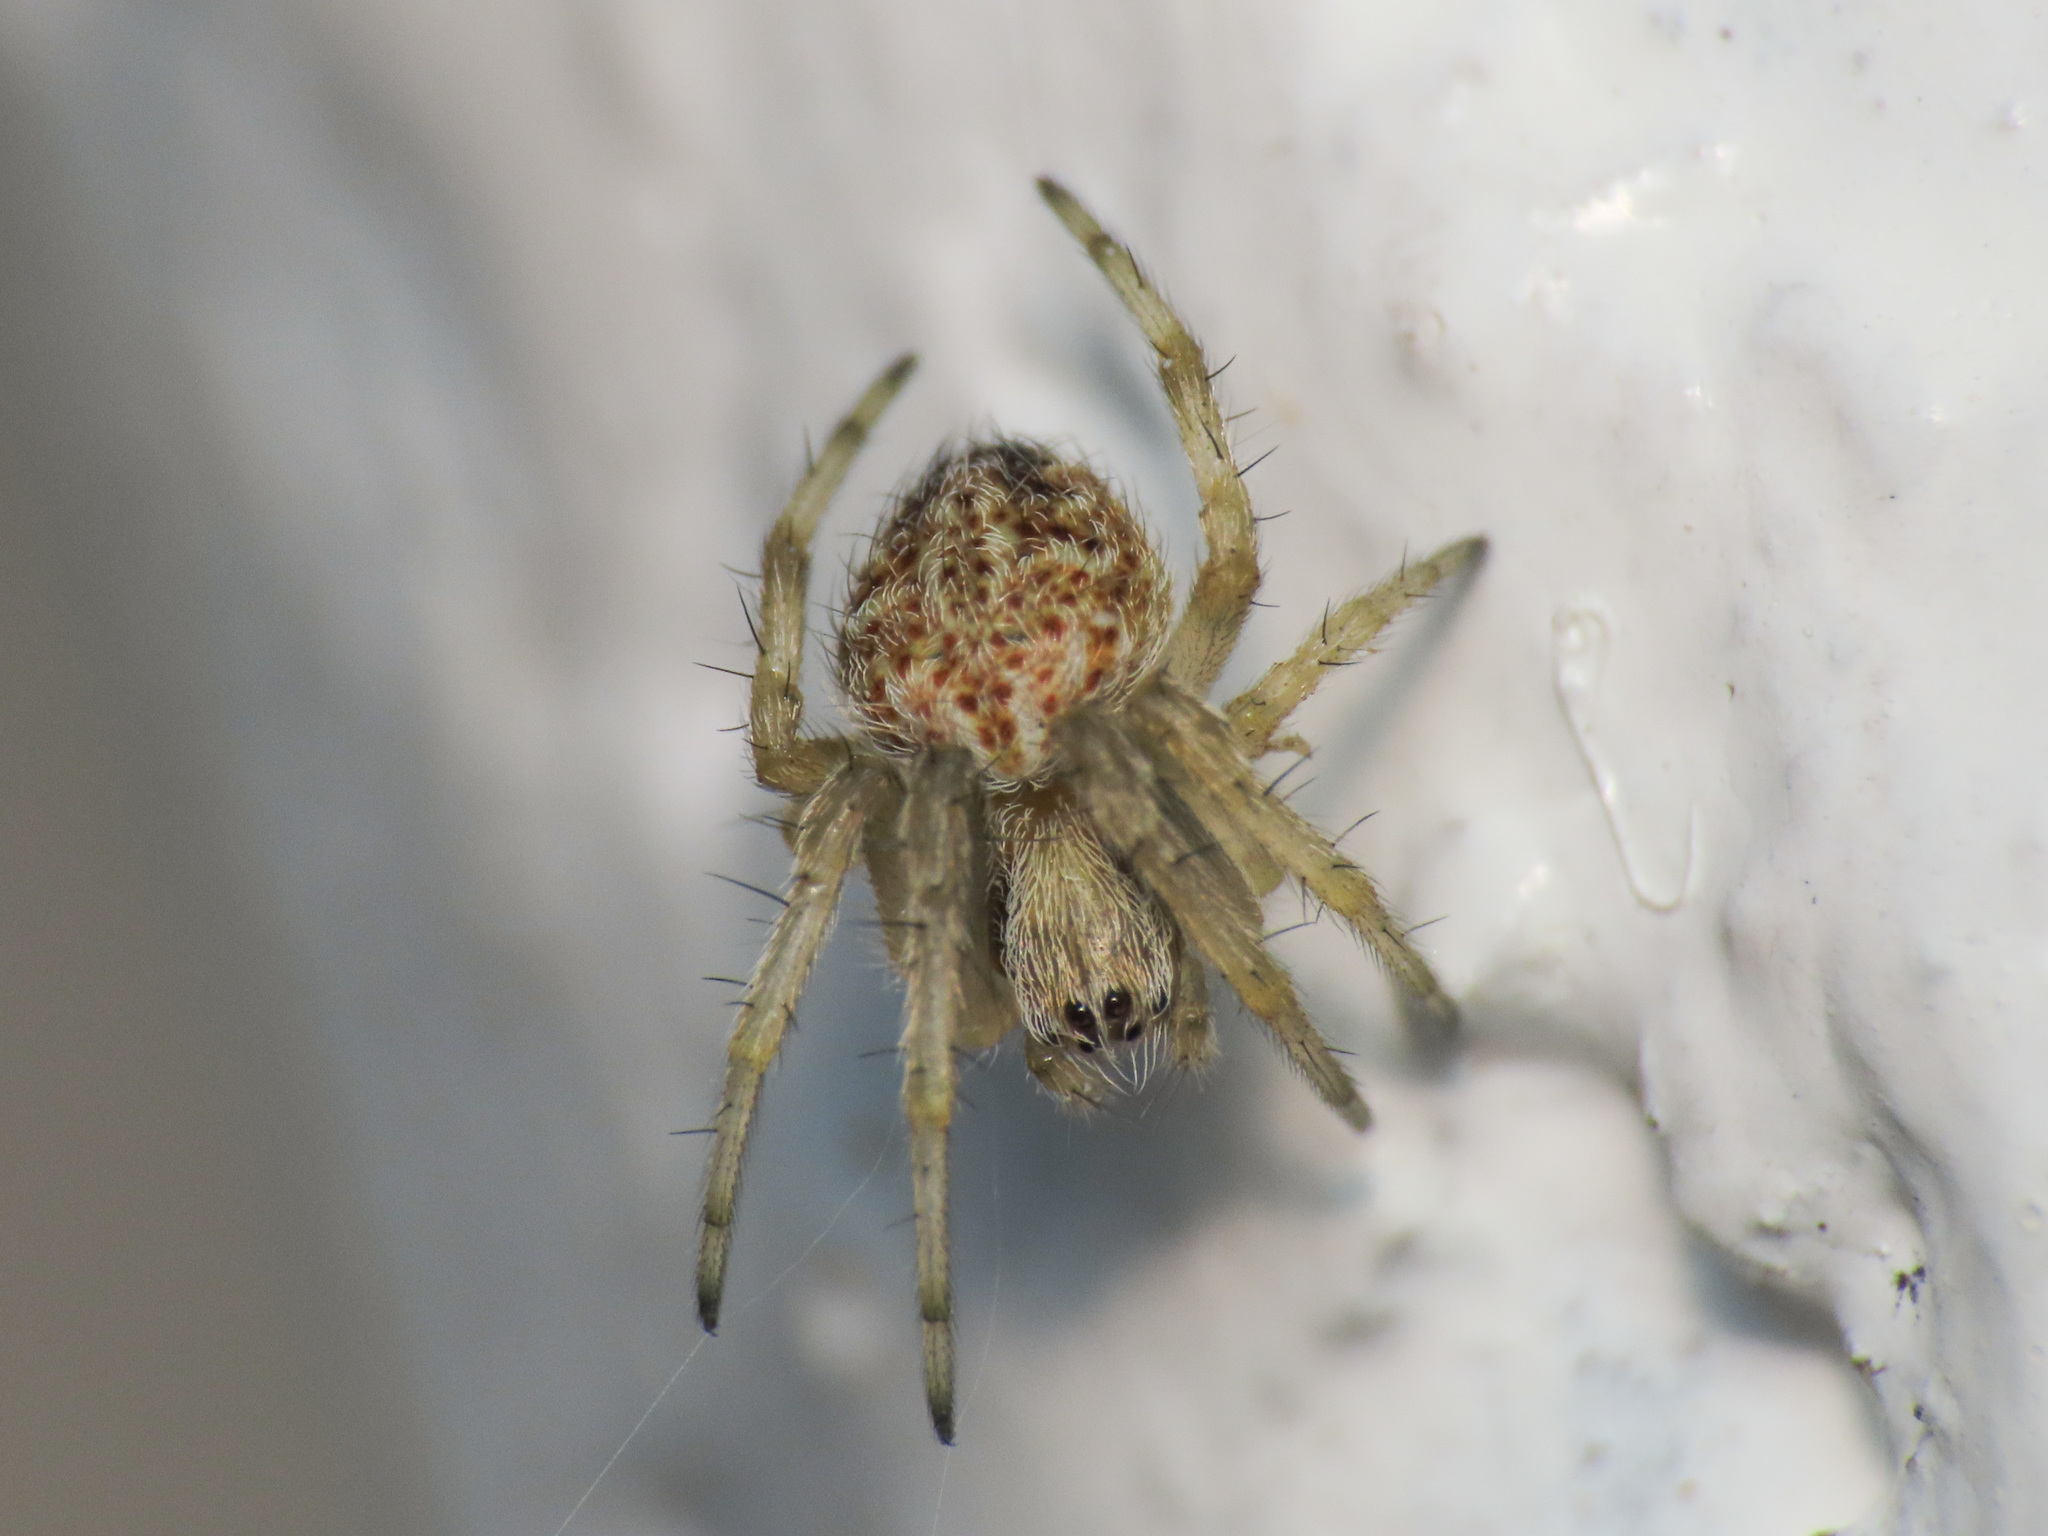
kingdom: Animalia
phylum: Arthropoda
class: Arachnida
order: Araneae
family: Araneidae
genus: Agalenatea
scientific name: Agalenatea redii
